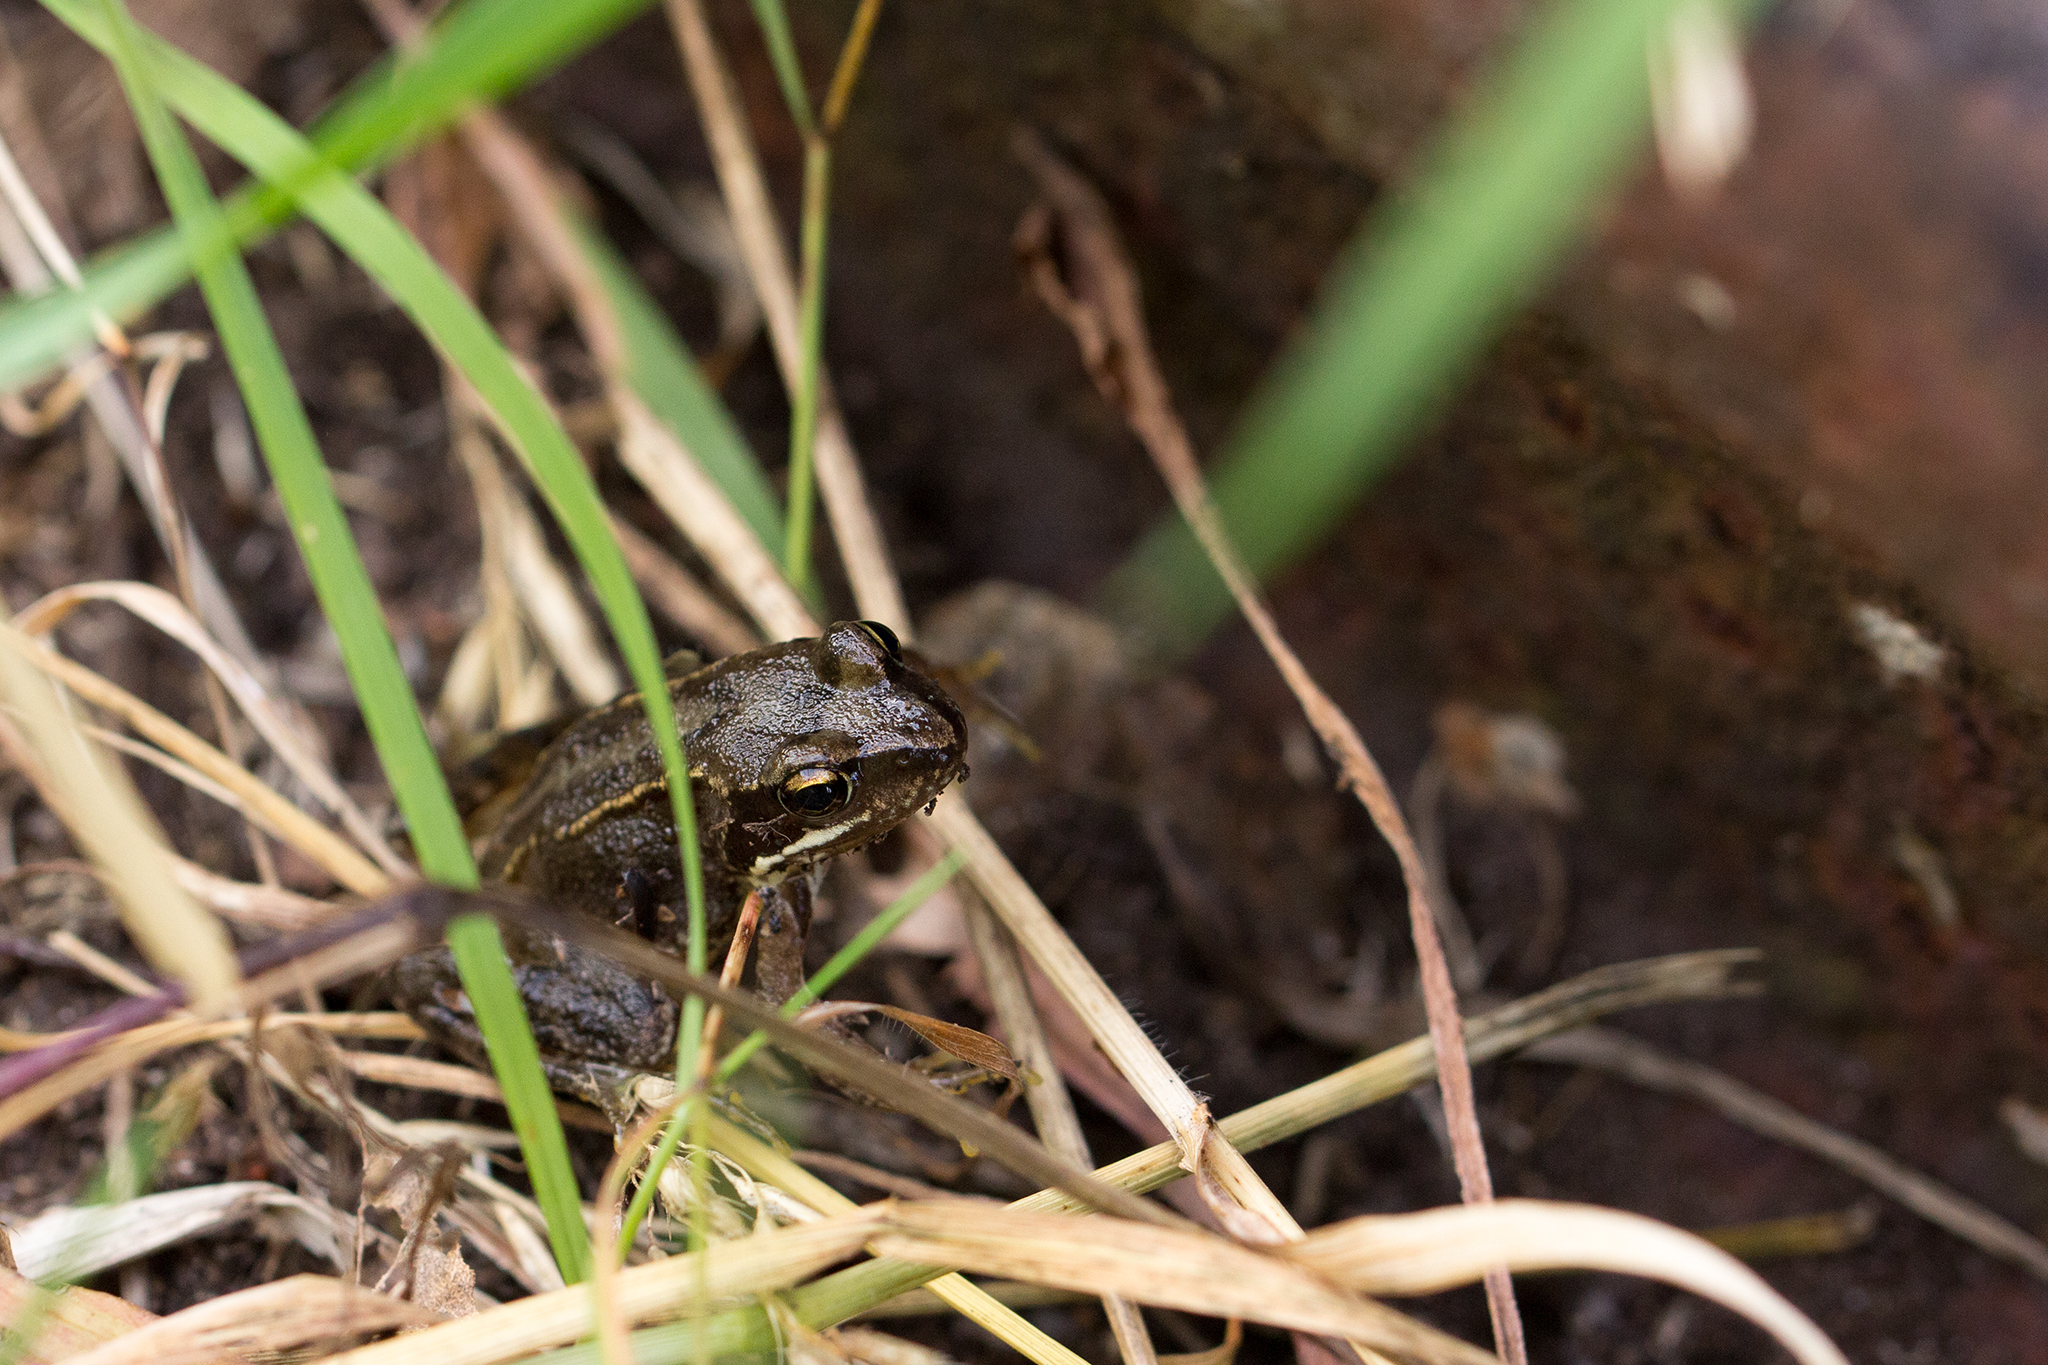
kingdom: Animalia
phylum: Chordata
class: Amphibia
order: Anura
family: Ranidae
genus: Rana
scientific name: Rana temporaria
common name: Common frog
